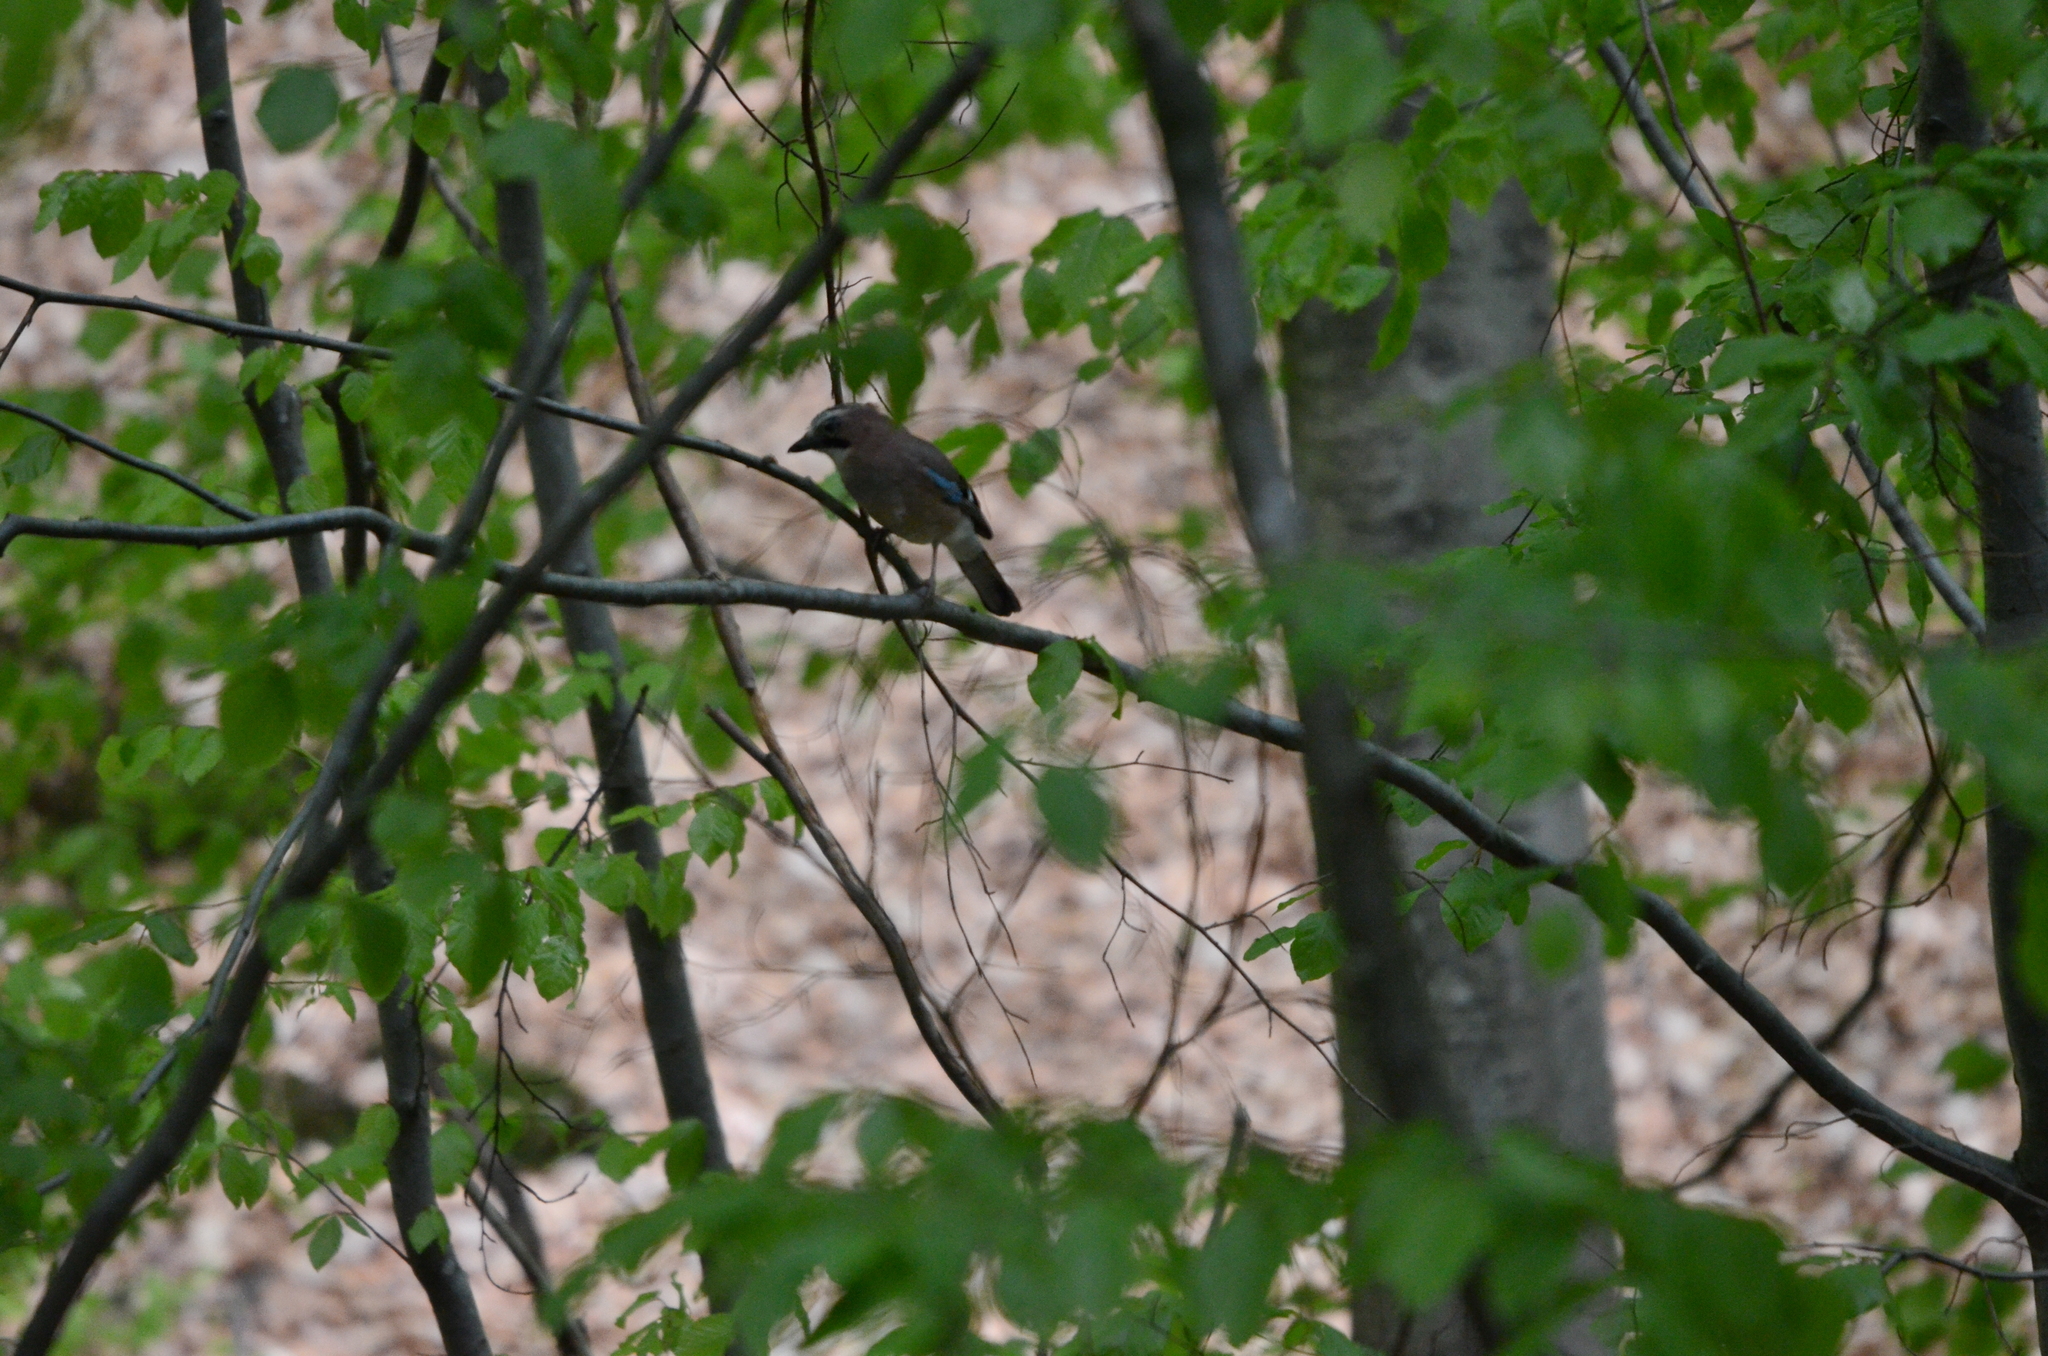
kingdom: Animalia
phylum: Chordata
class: Aves
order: Passeriformes
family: Corvidae
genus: Garrulus
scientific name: Garrulus glandarius
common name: Eurasian jay
